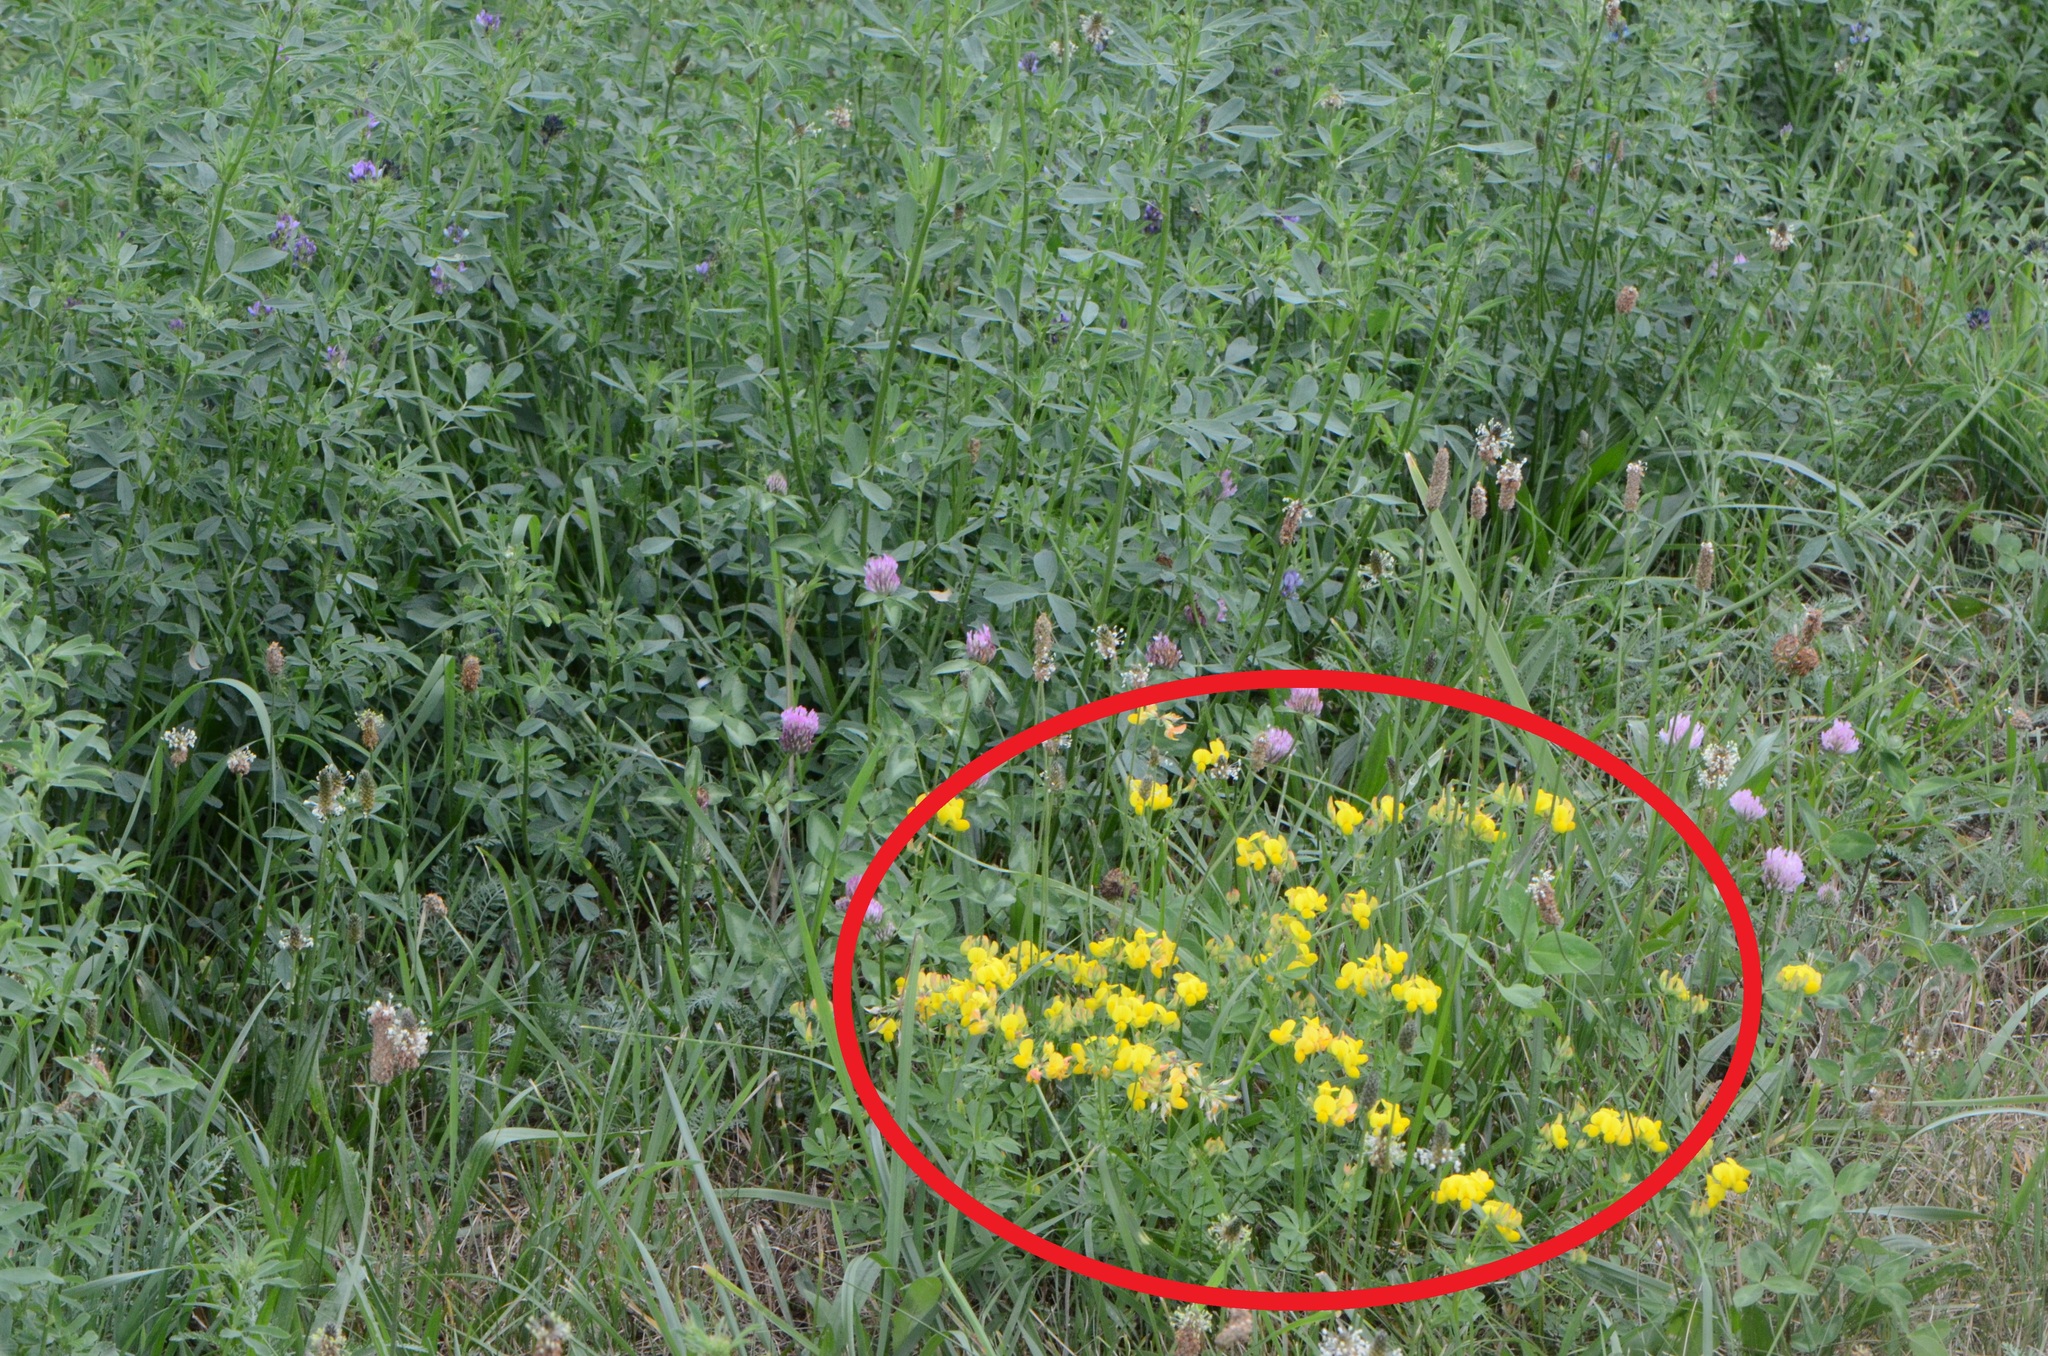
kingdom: Plantae
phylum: Tracheophyta
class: Magnoliopsida
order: Fabales
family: Fabaceae
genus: Lotus
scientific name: Lotus corniculatus
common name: Common bird's-foot-trefoil
